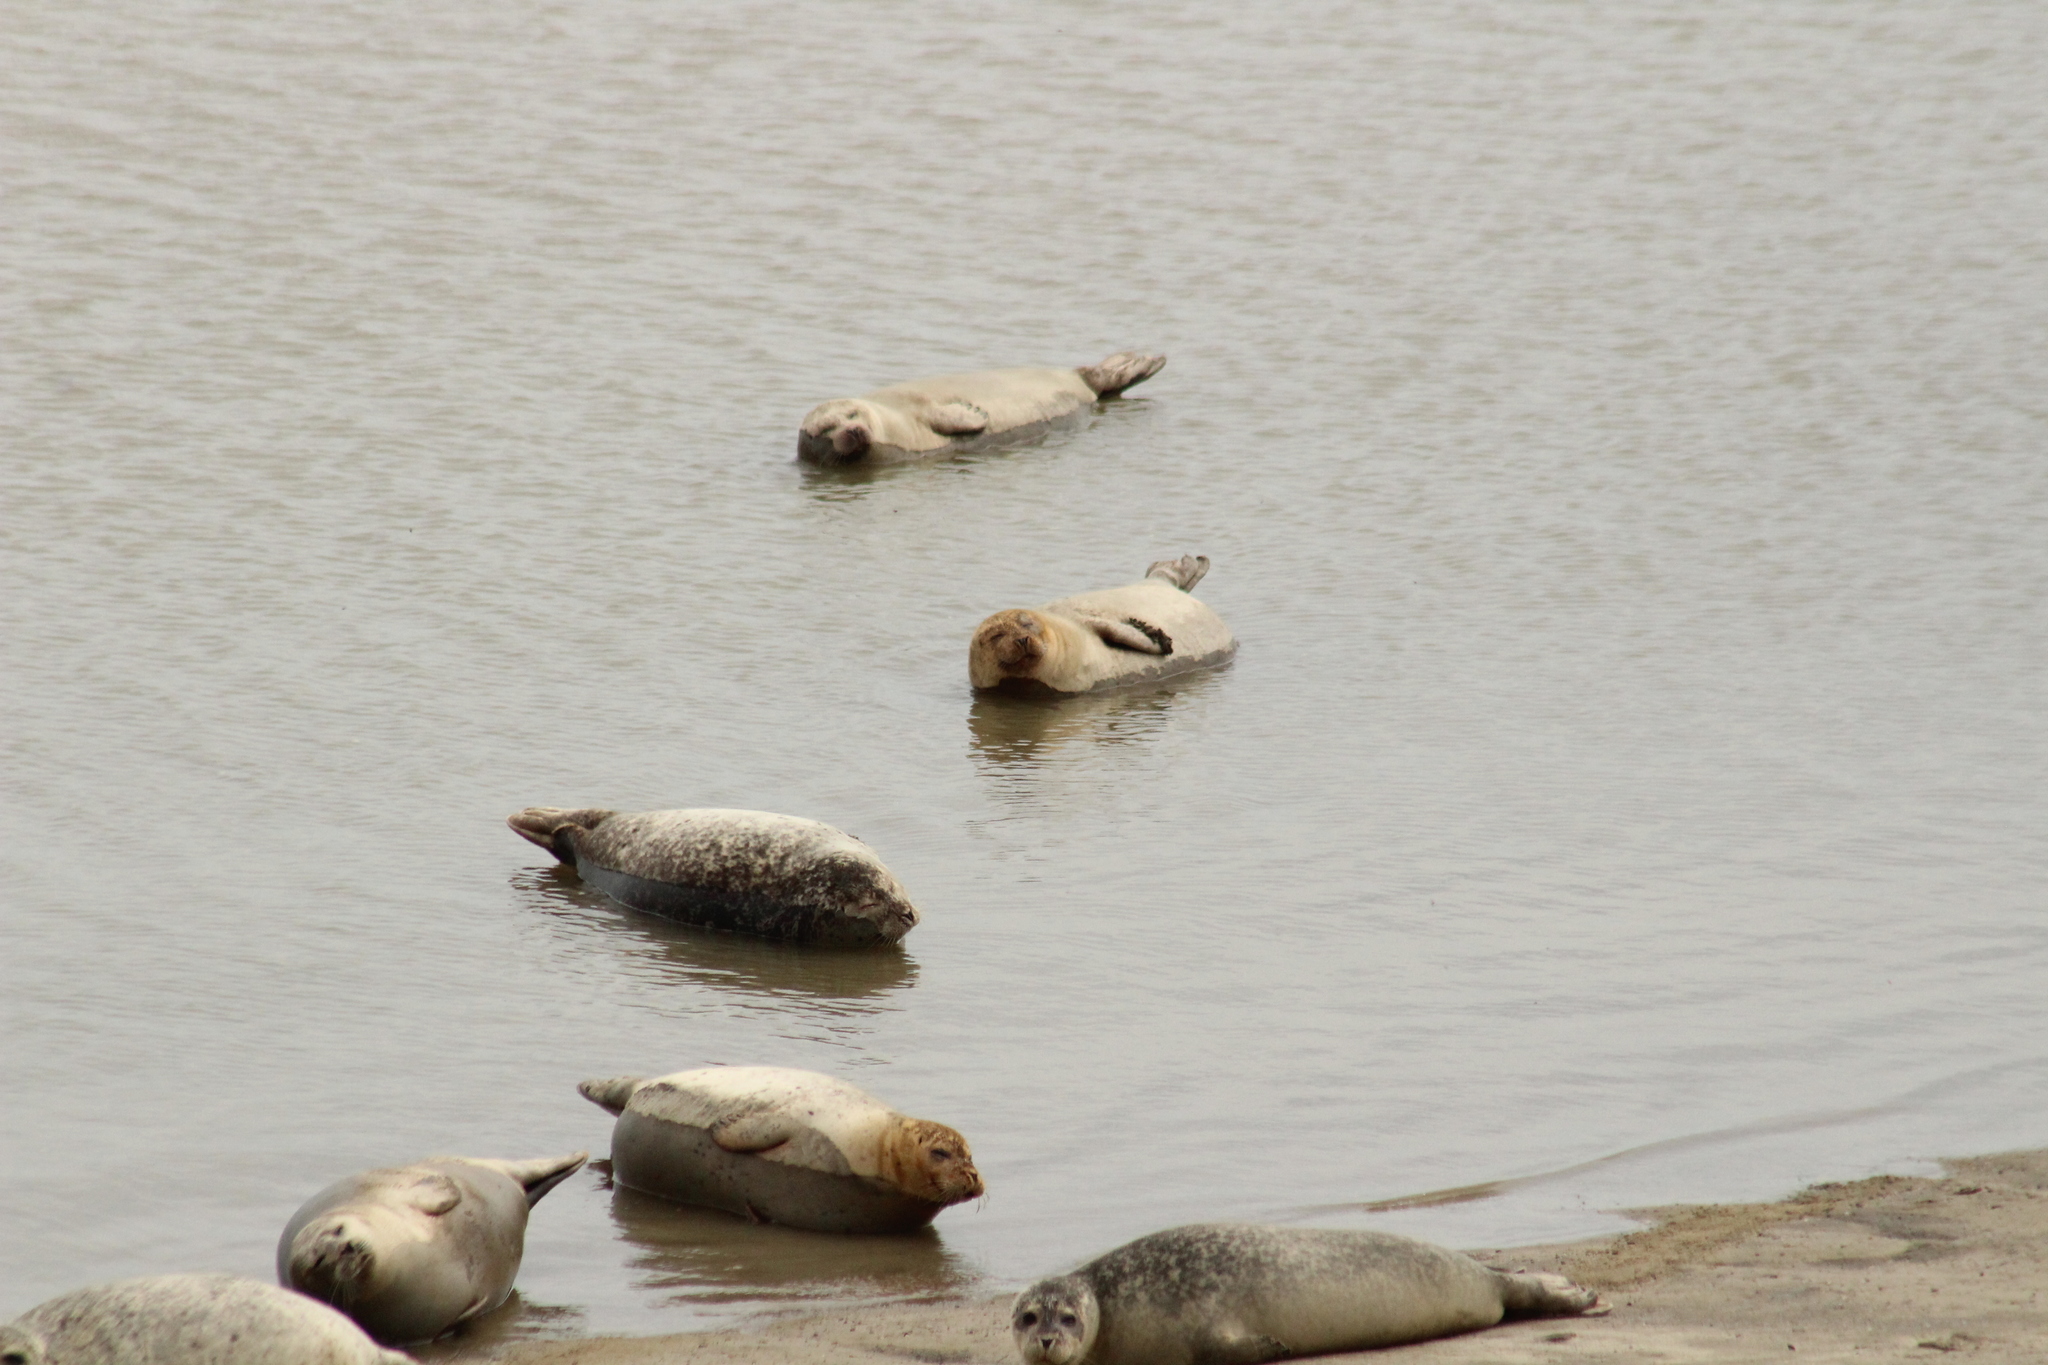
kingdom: Animalia
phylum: Chordata
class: Mammalia
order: Carnivora
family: Phocidae
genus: Phoca
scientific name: Phoca vitulina
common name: Harbor seal
